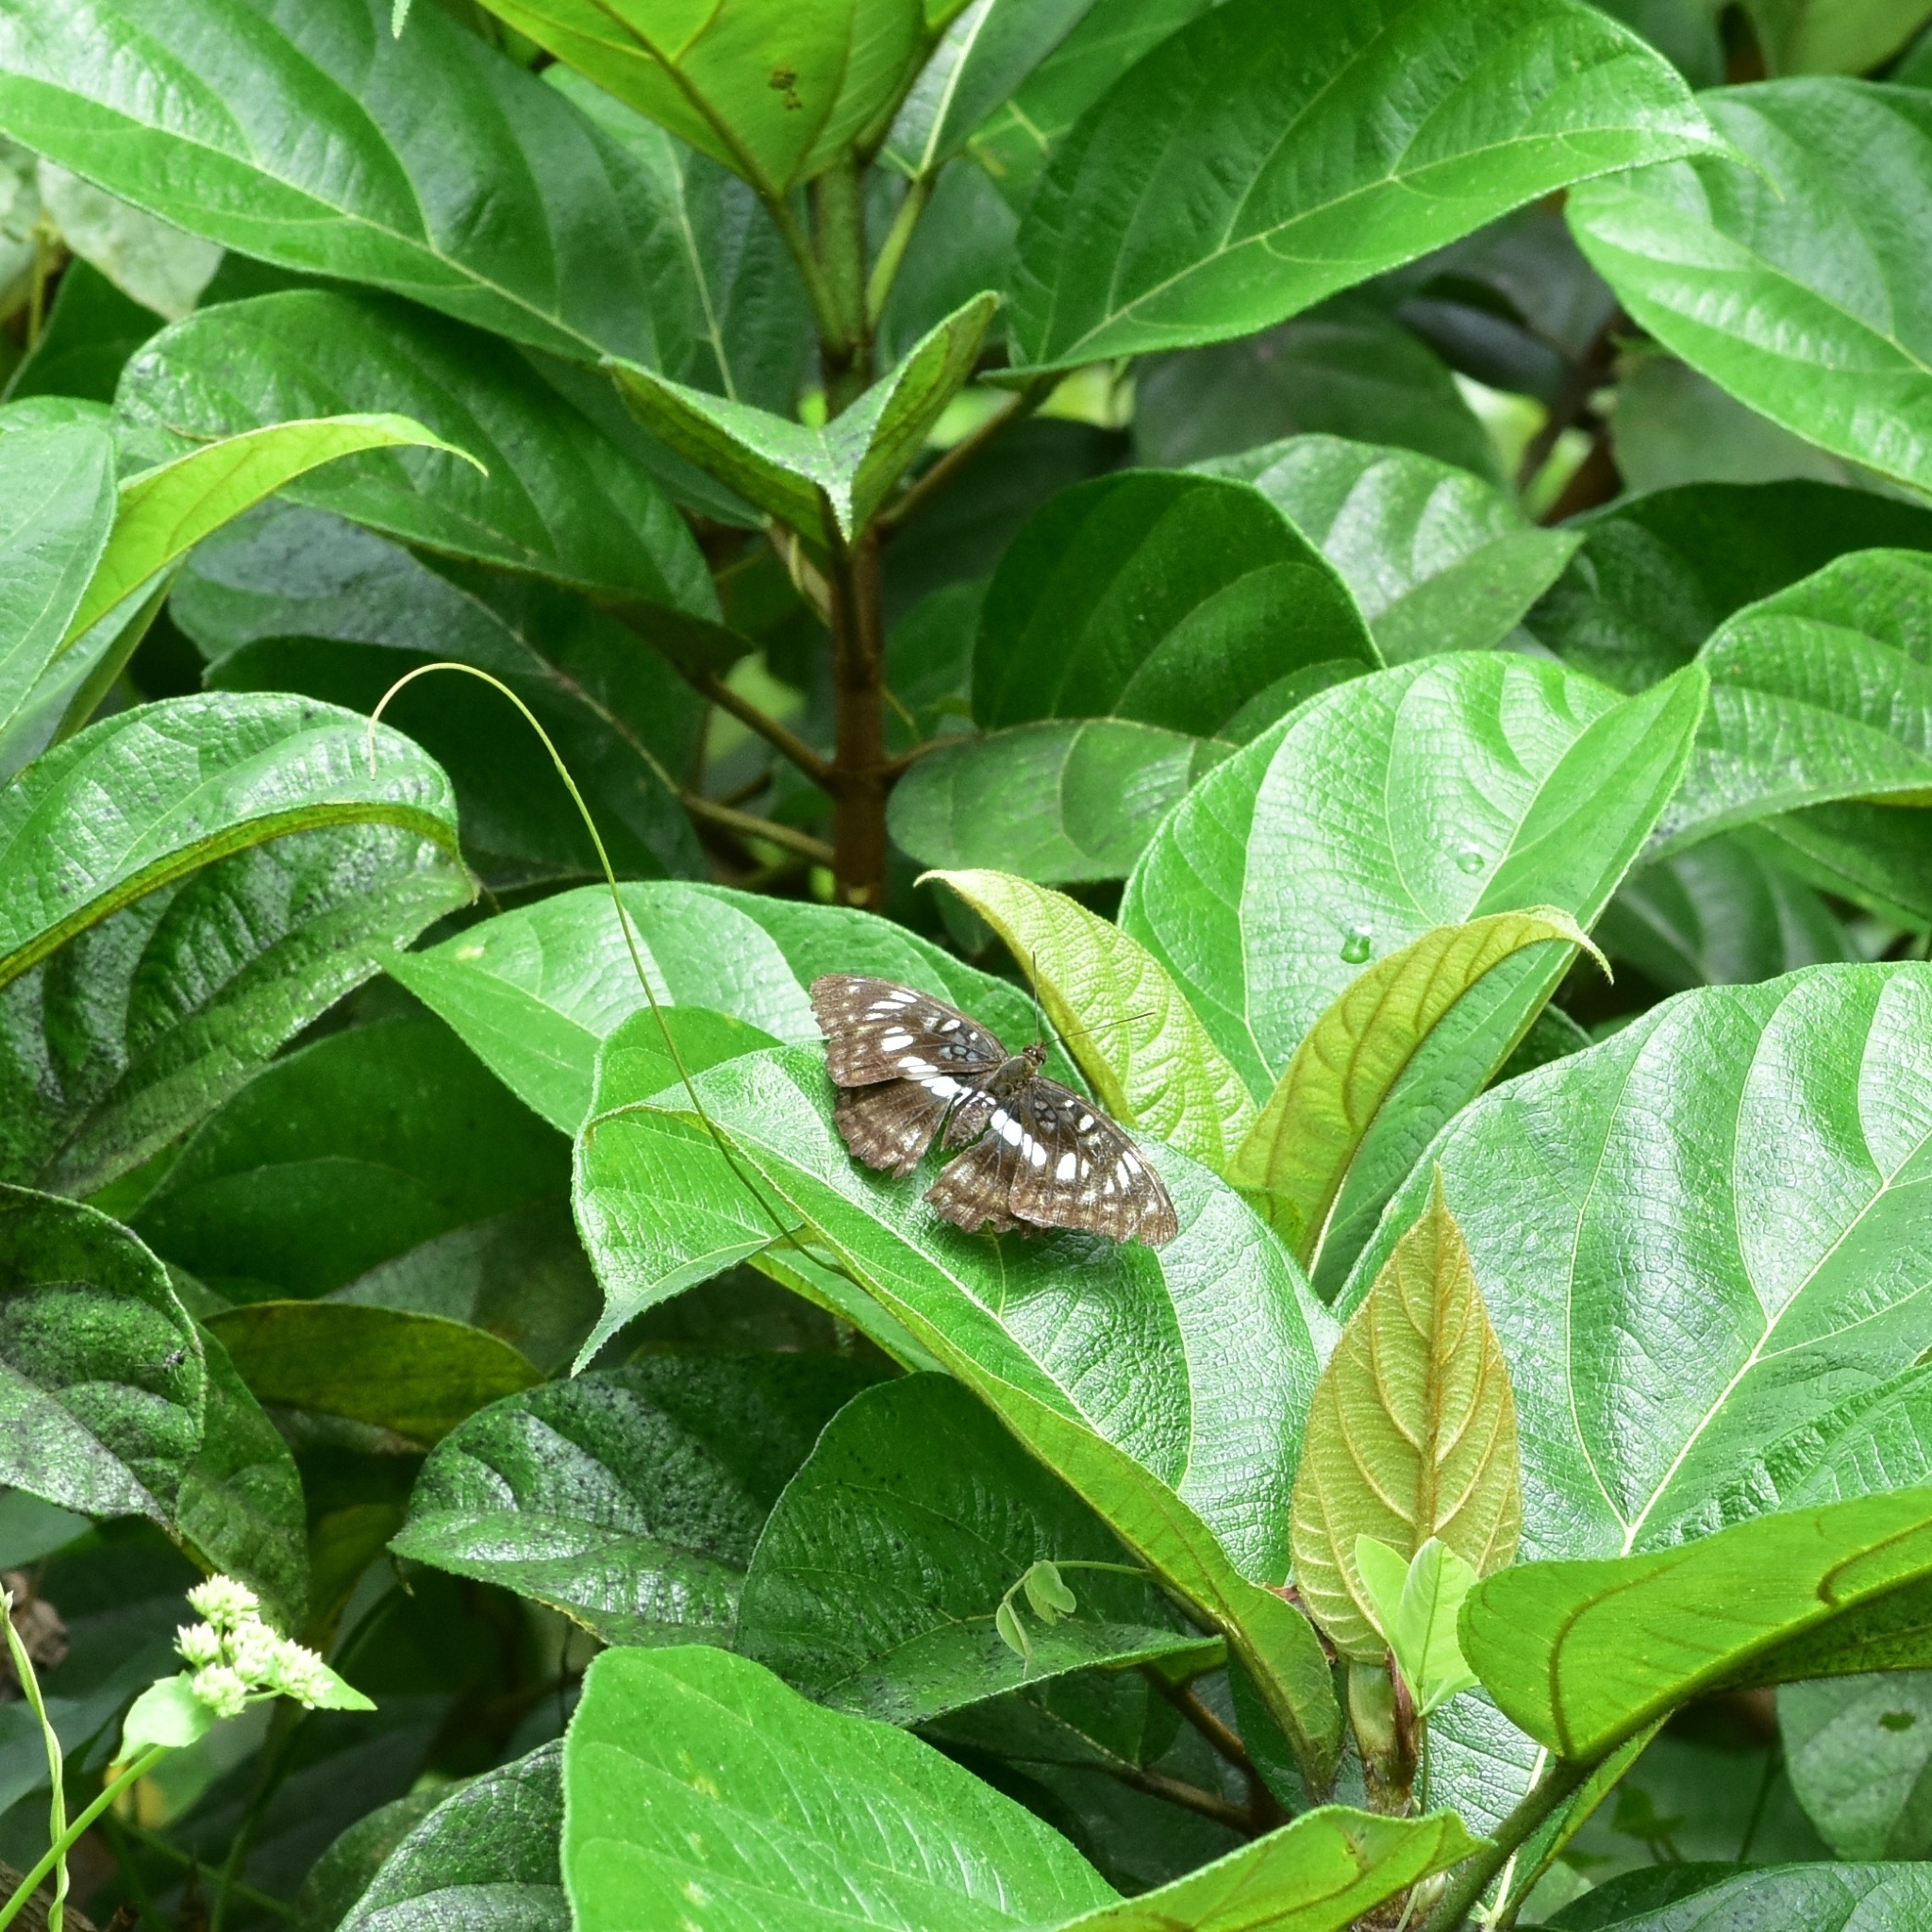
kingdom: Animalia
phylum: Arthropoda
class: Insecta
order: Lepidoptera
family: Nymphalidae
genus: Parathyma
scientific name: Parathyma ranga
